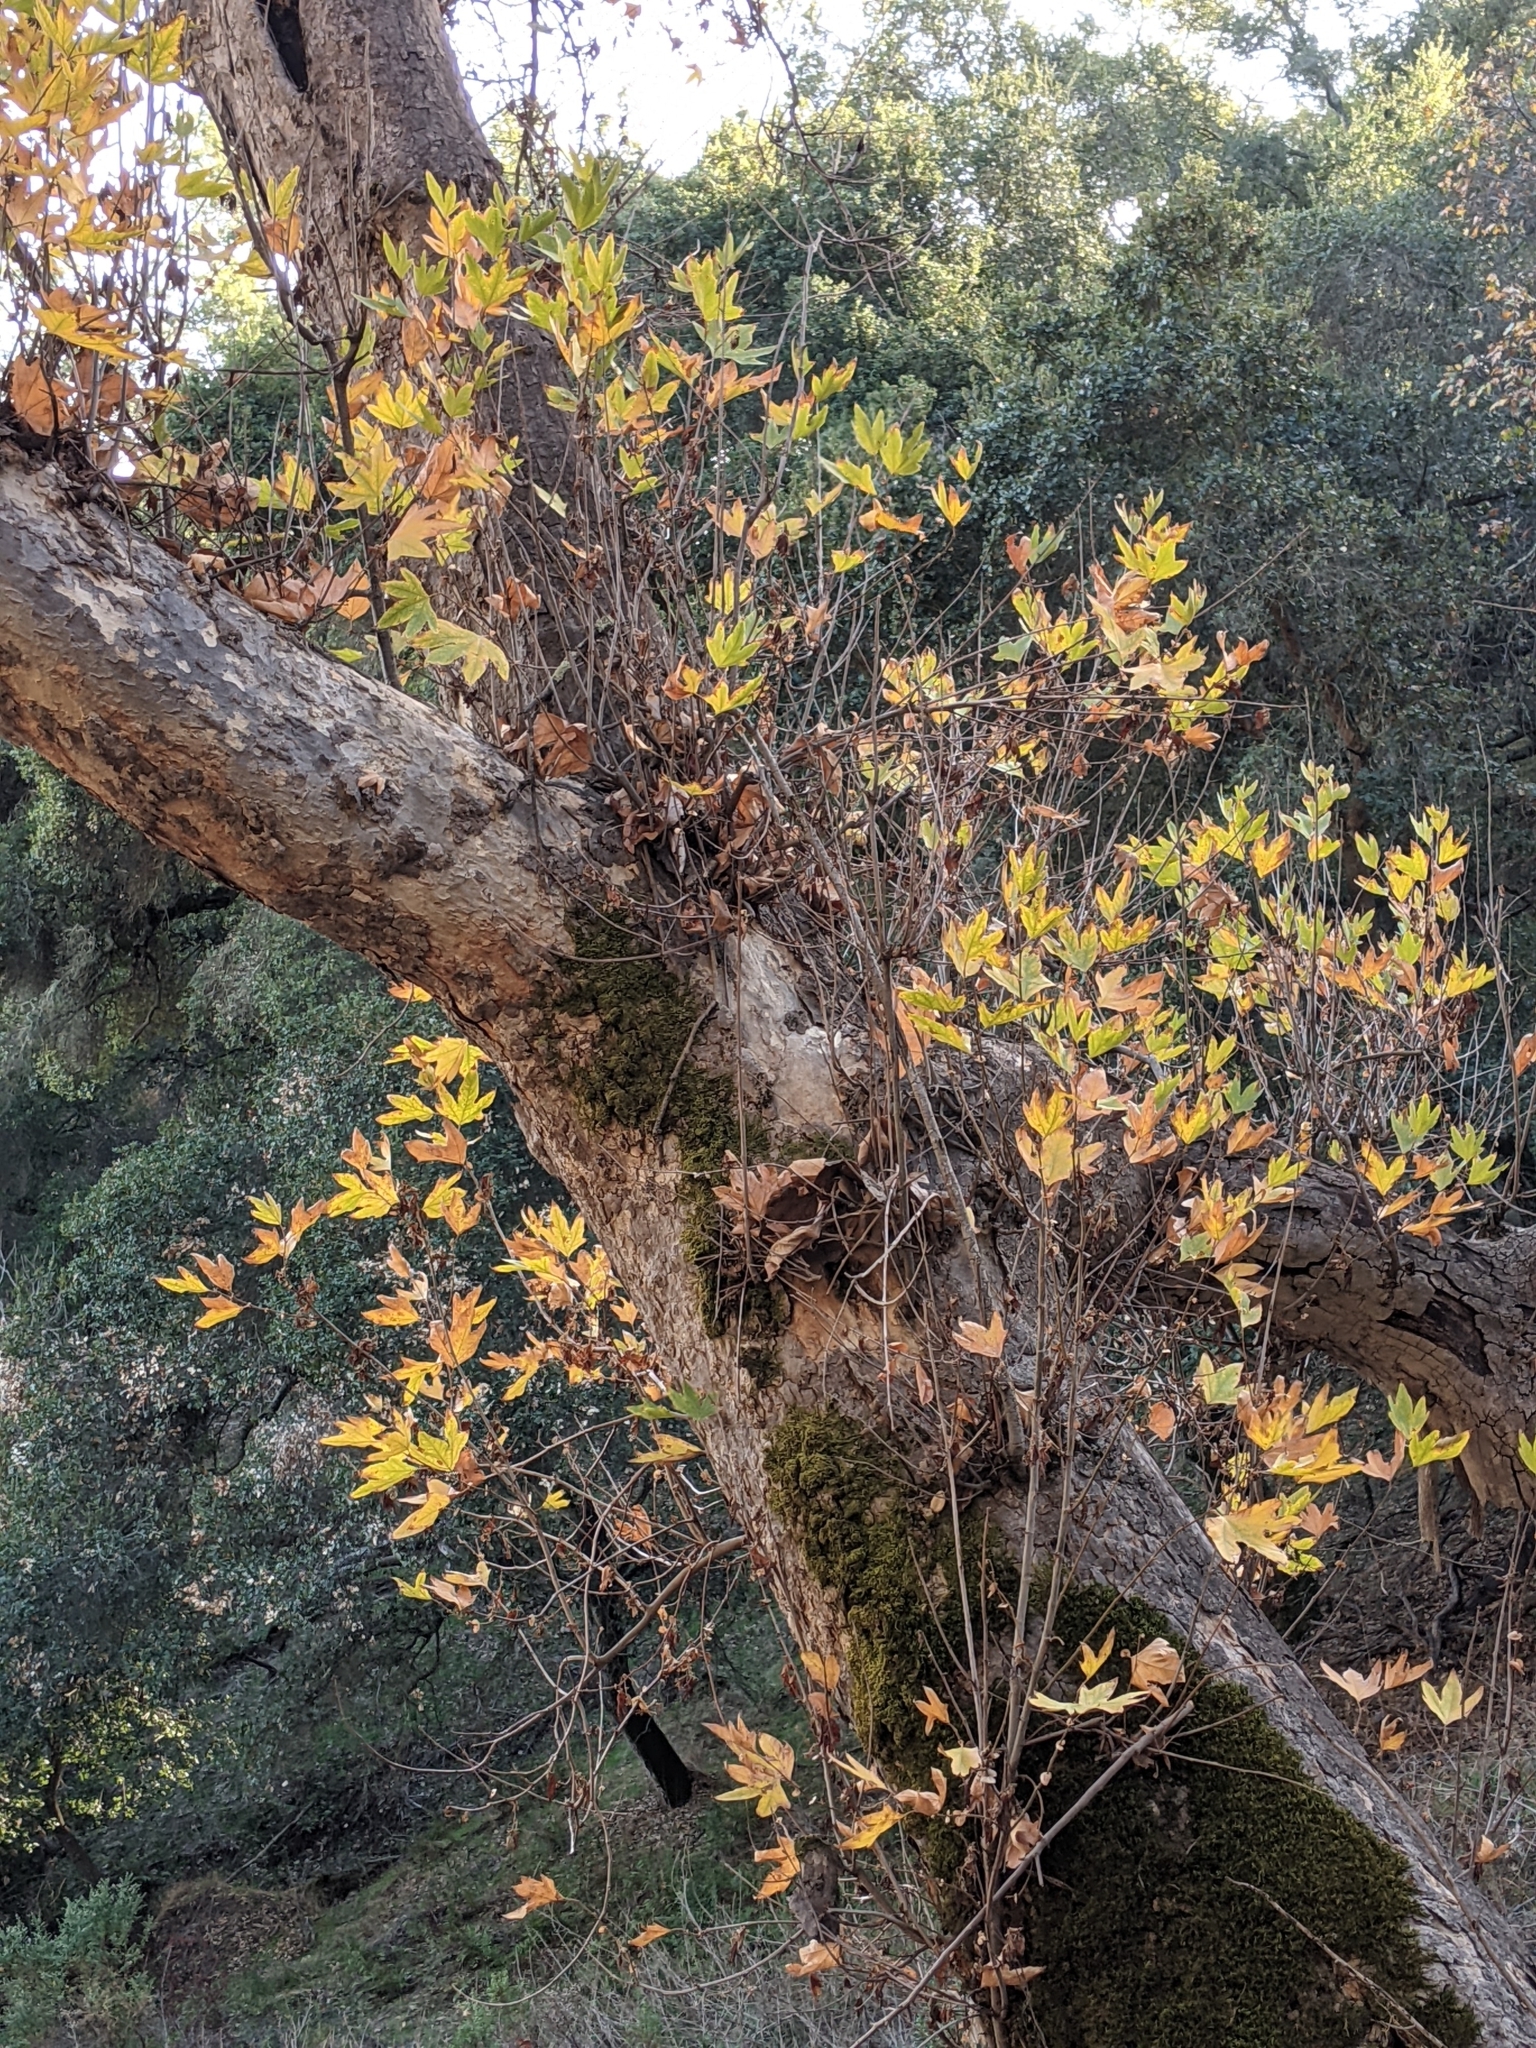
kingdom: Plantae
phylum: Tracheophyta
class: Magnoliopsida
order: Proteales
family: Platanaceae
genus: Platanus
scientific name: Platanus racemosa
